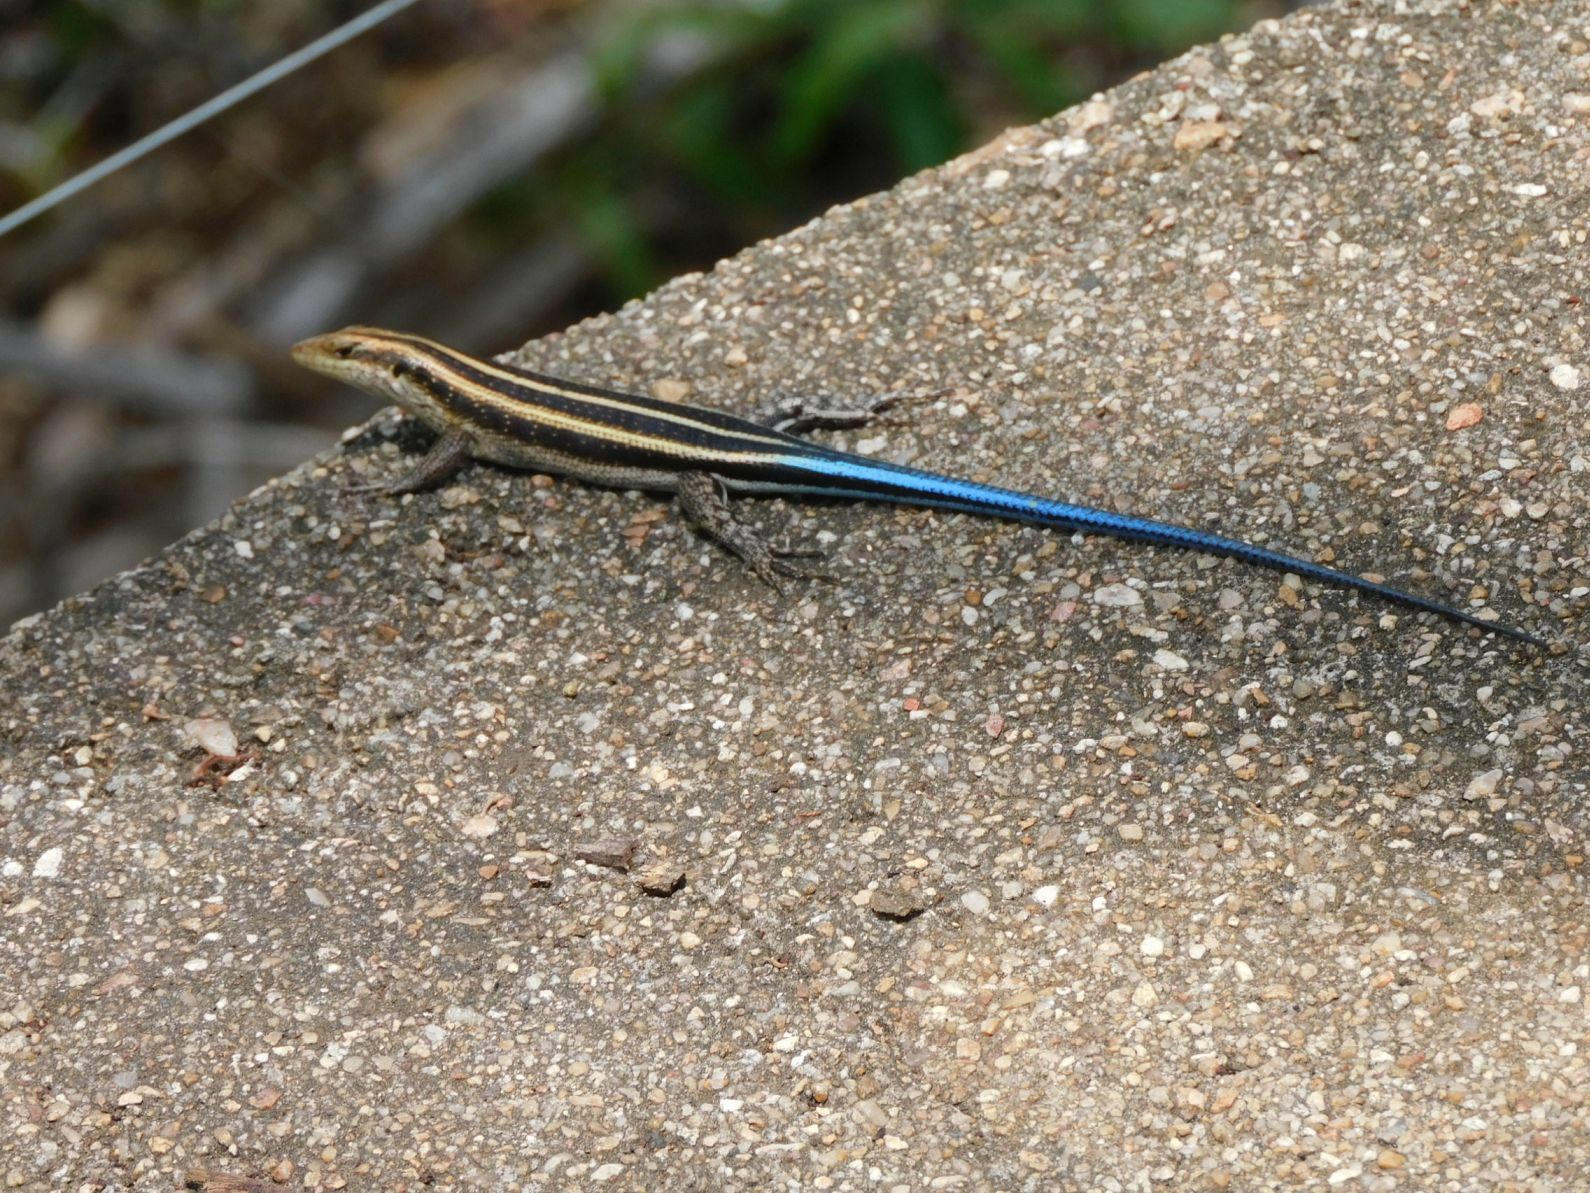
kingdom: Animalia
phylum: Chordata
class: Squamata
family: Scincidae
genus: Trachylepis
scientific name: Trachylepis margaritifera
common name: Rainbow skink
